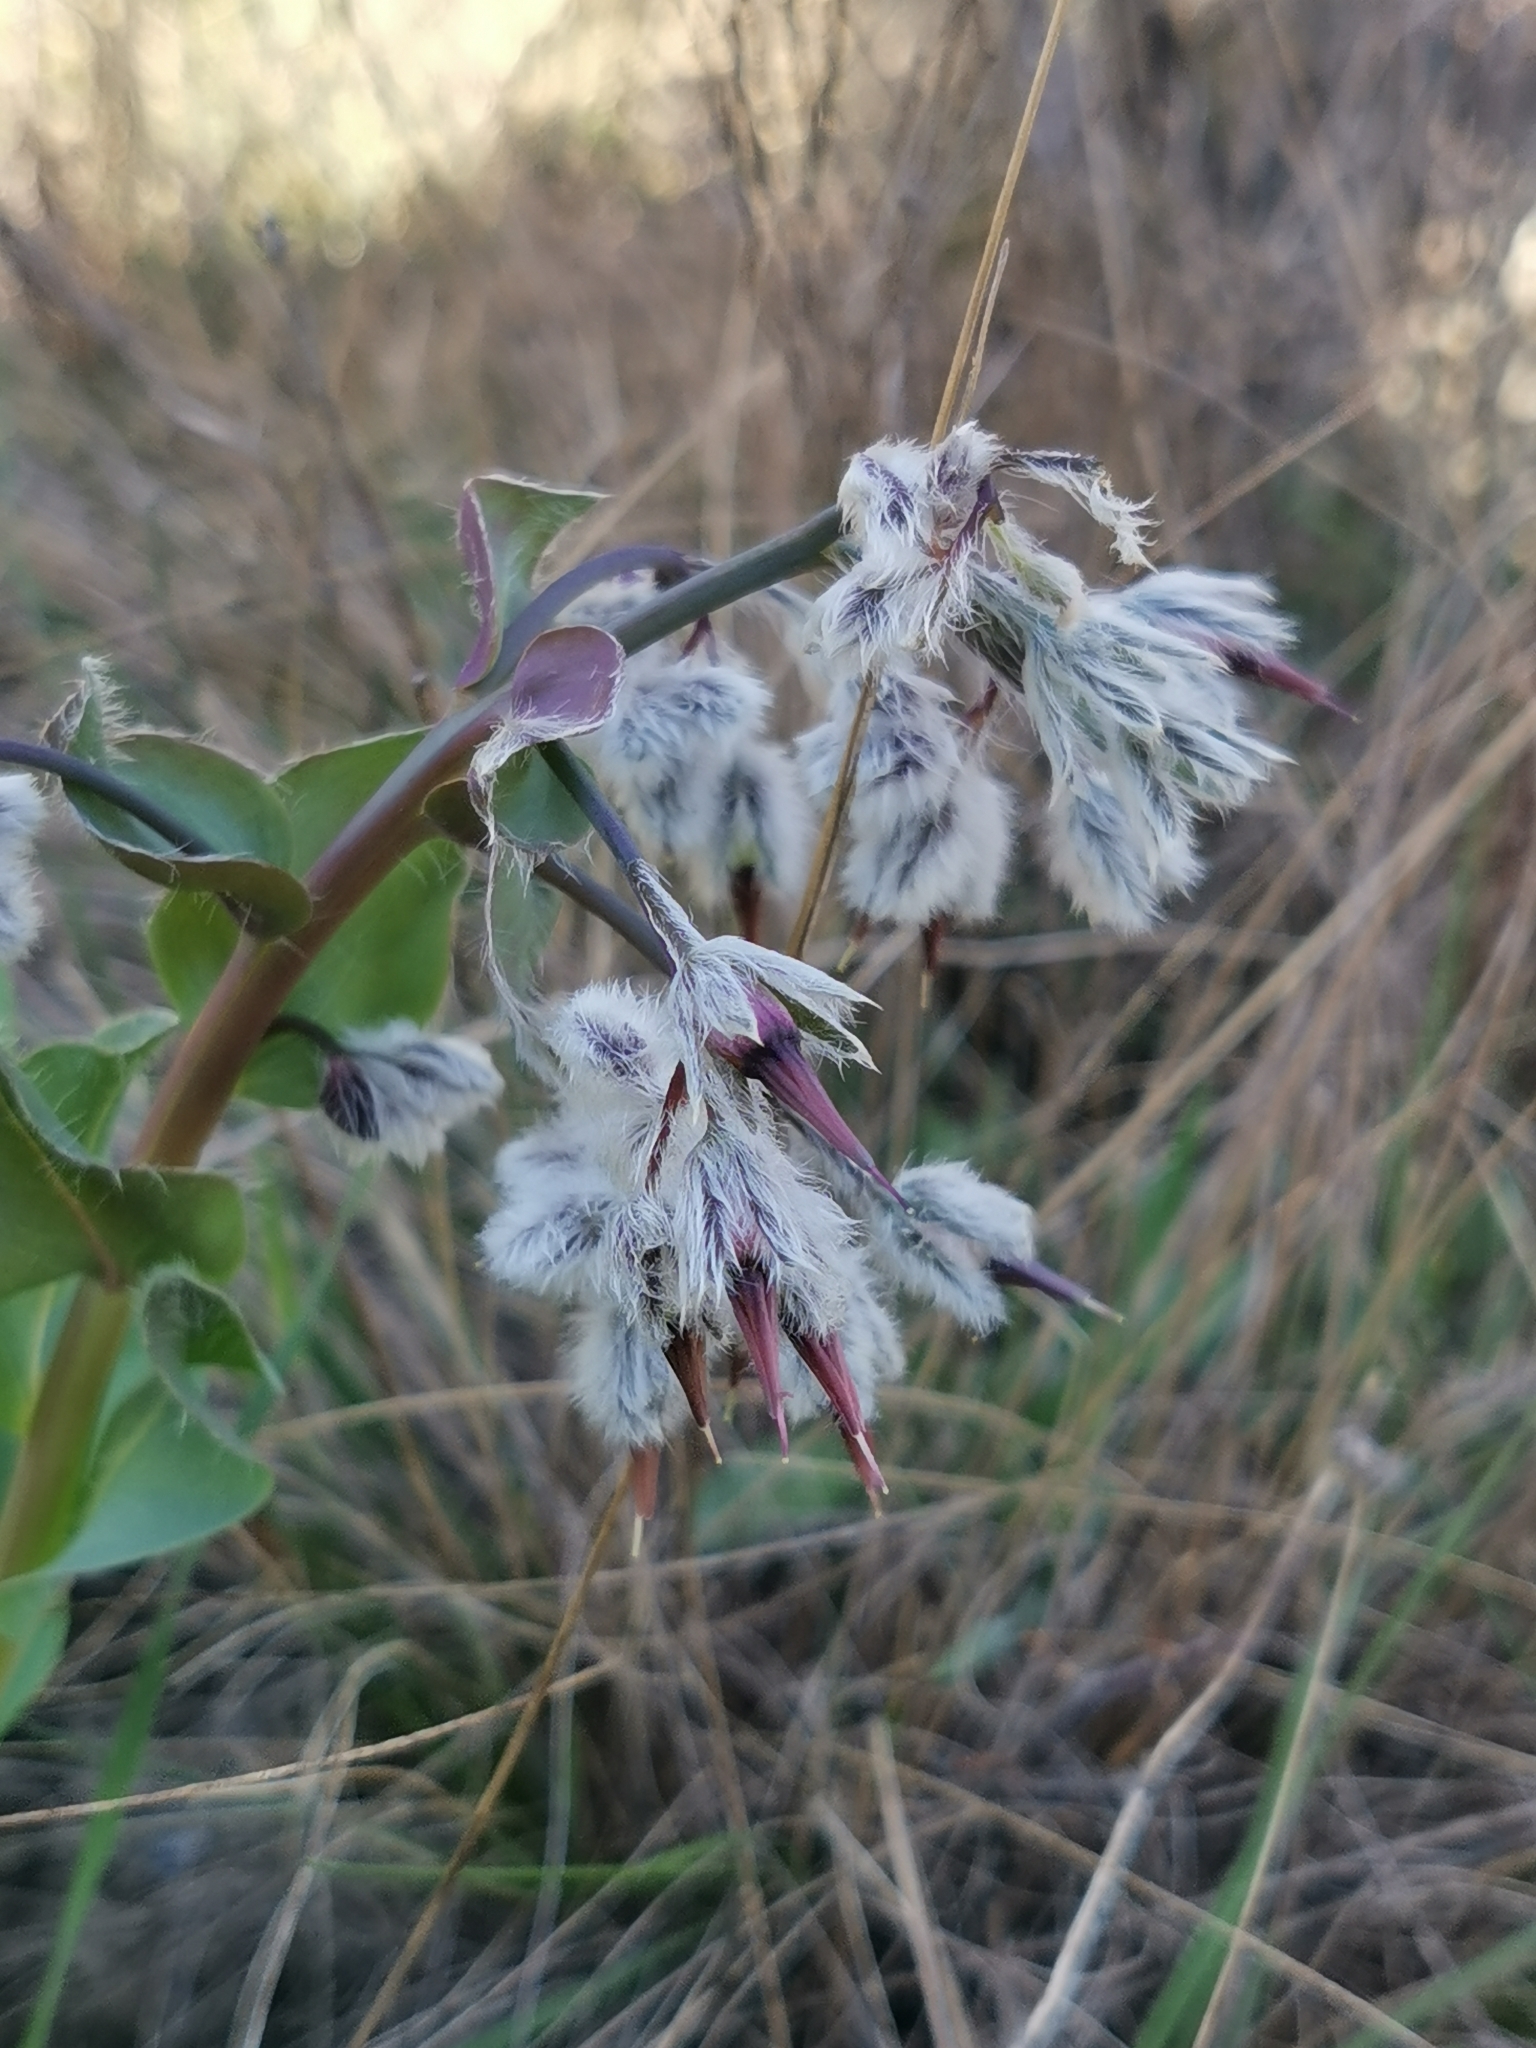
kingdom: Plantae
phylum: Tracheophyta
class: Magnoliopsida
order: Boraginales
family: Boraginaceae
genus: Rindera
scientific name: Rindera tetraspis
